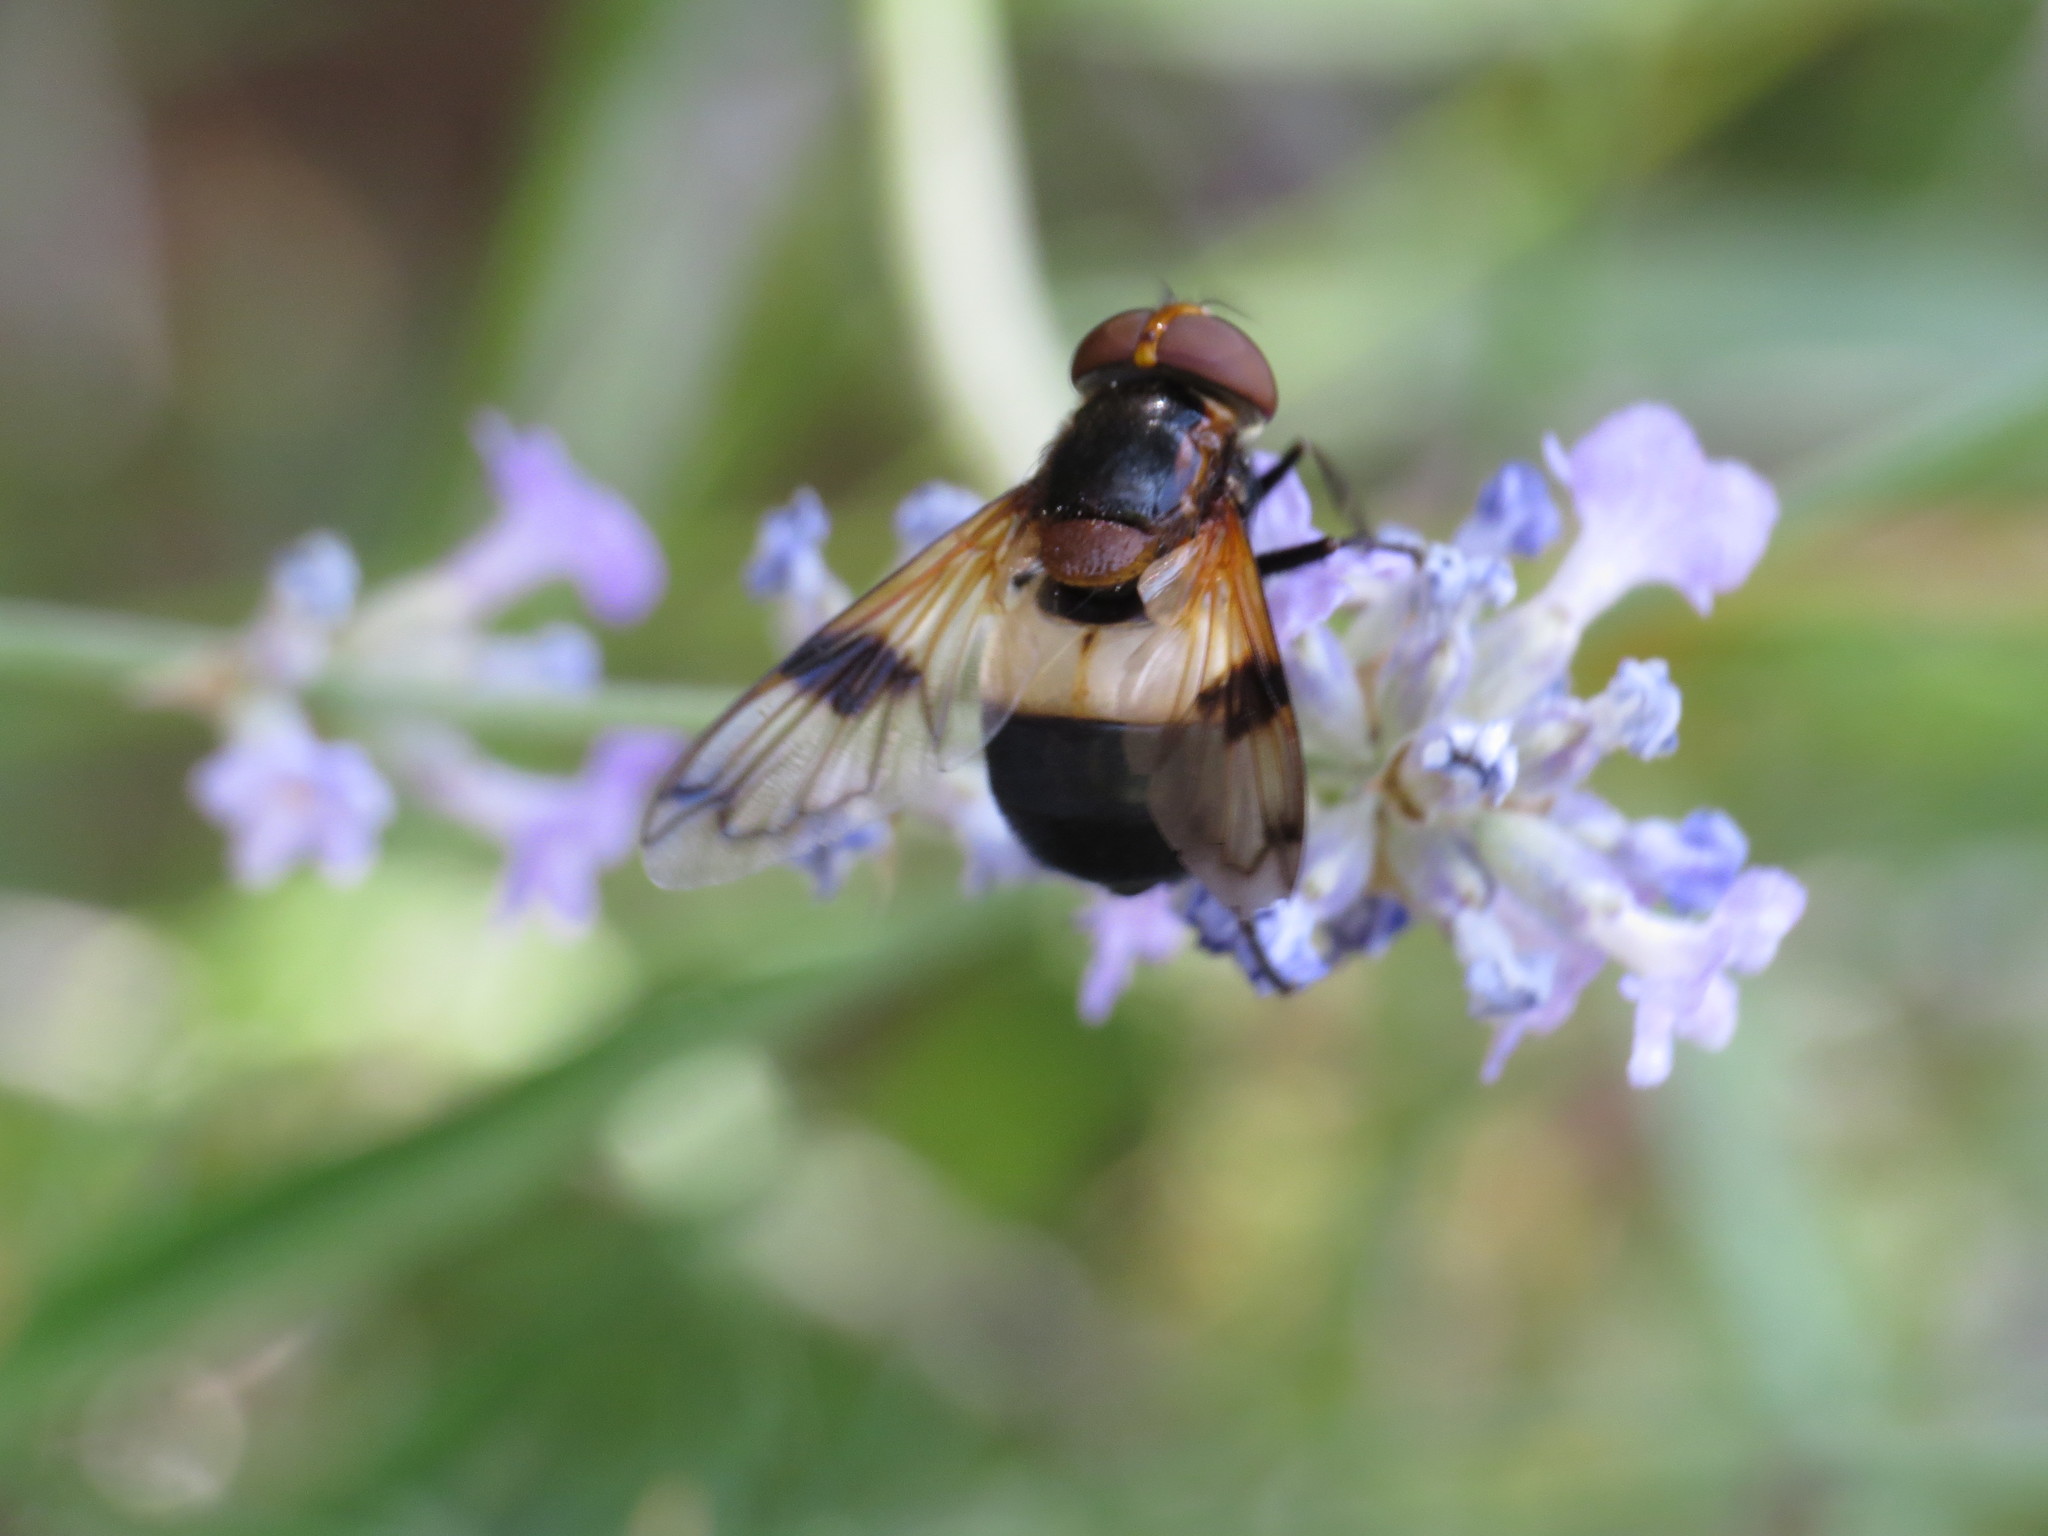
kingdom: Animalia
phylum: Arthropoda
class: Insecta
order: Diptera
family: Syrphidae
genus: Volucella
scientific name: Volucella pellucens
